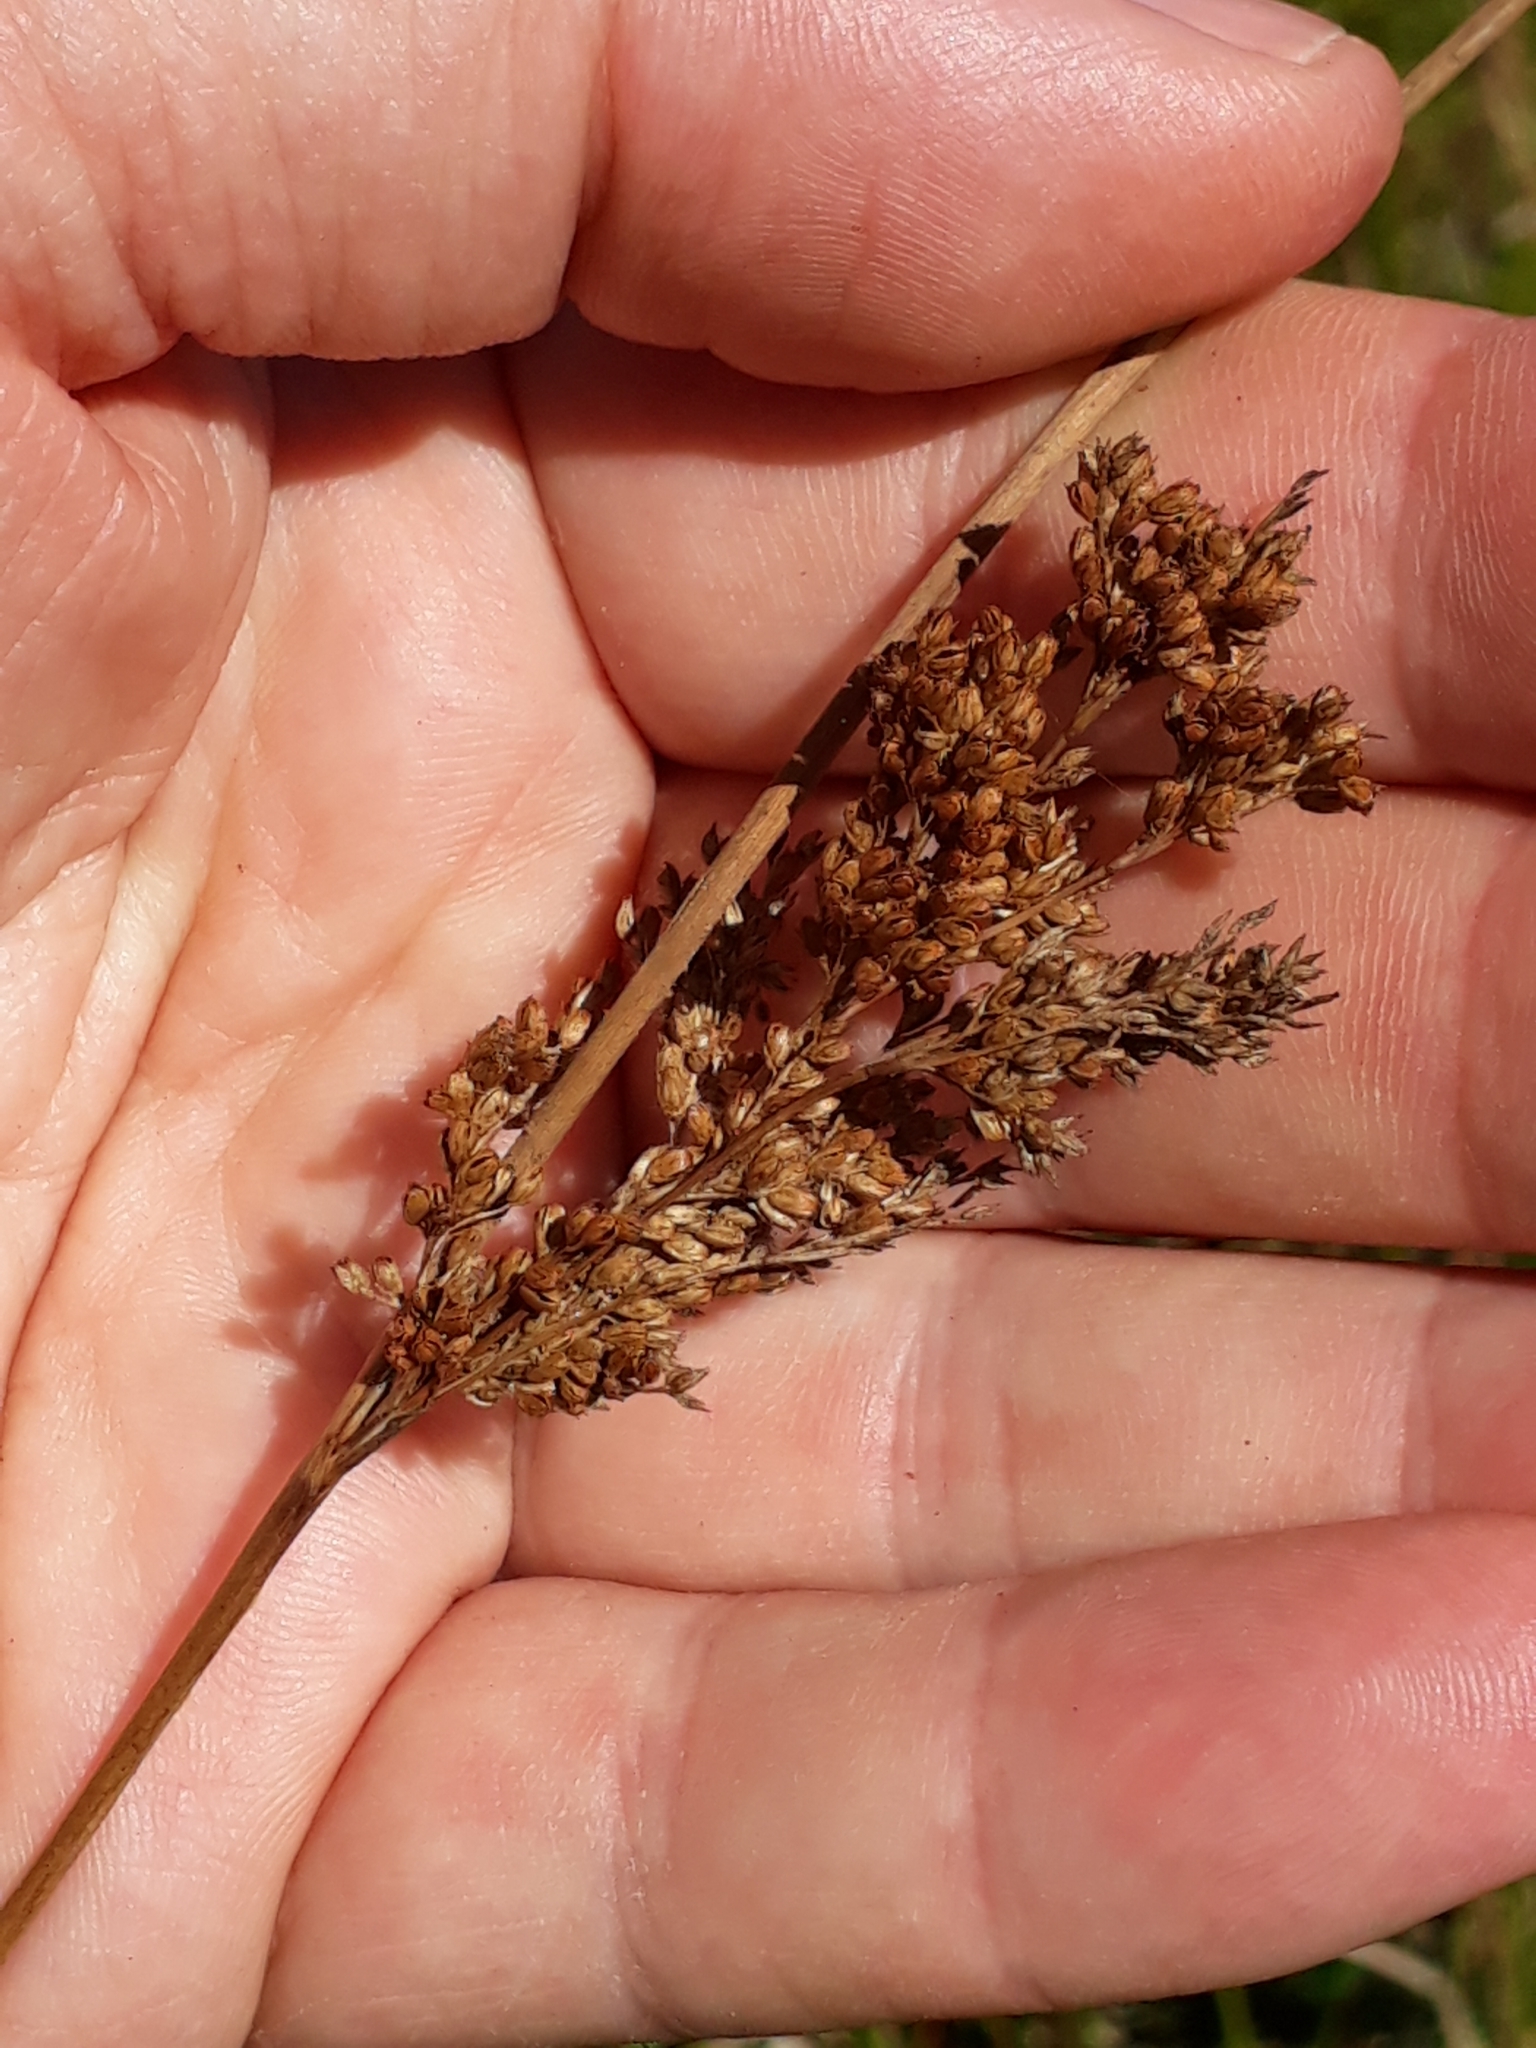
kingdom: Plantae
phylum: Tracheophyta
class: Liliopsida
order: Poales
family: Juncaceae
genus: Juncus
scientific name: Juncus pallidus
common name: Great soft-rush
